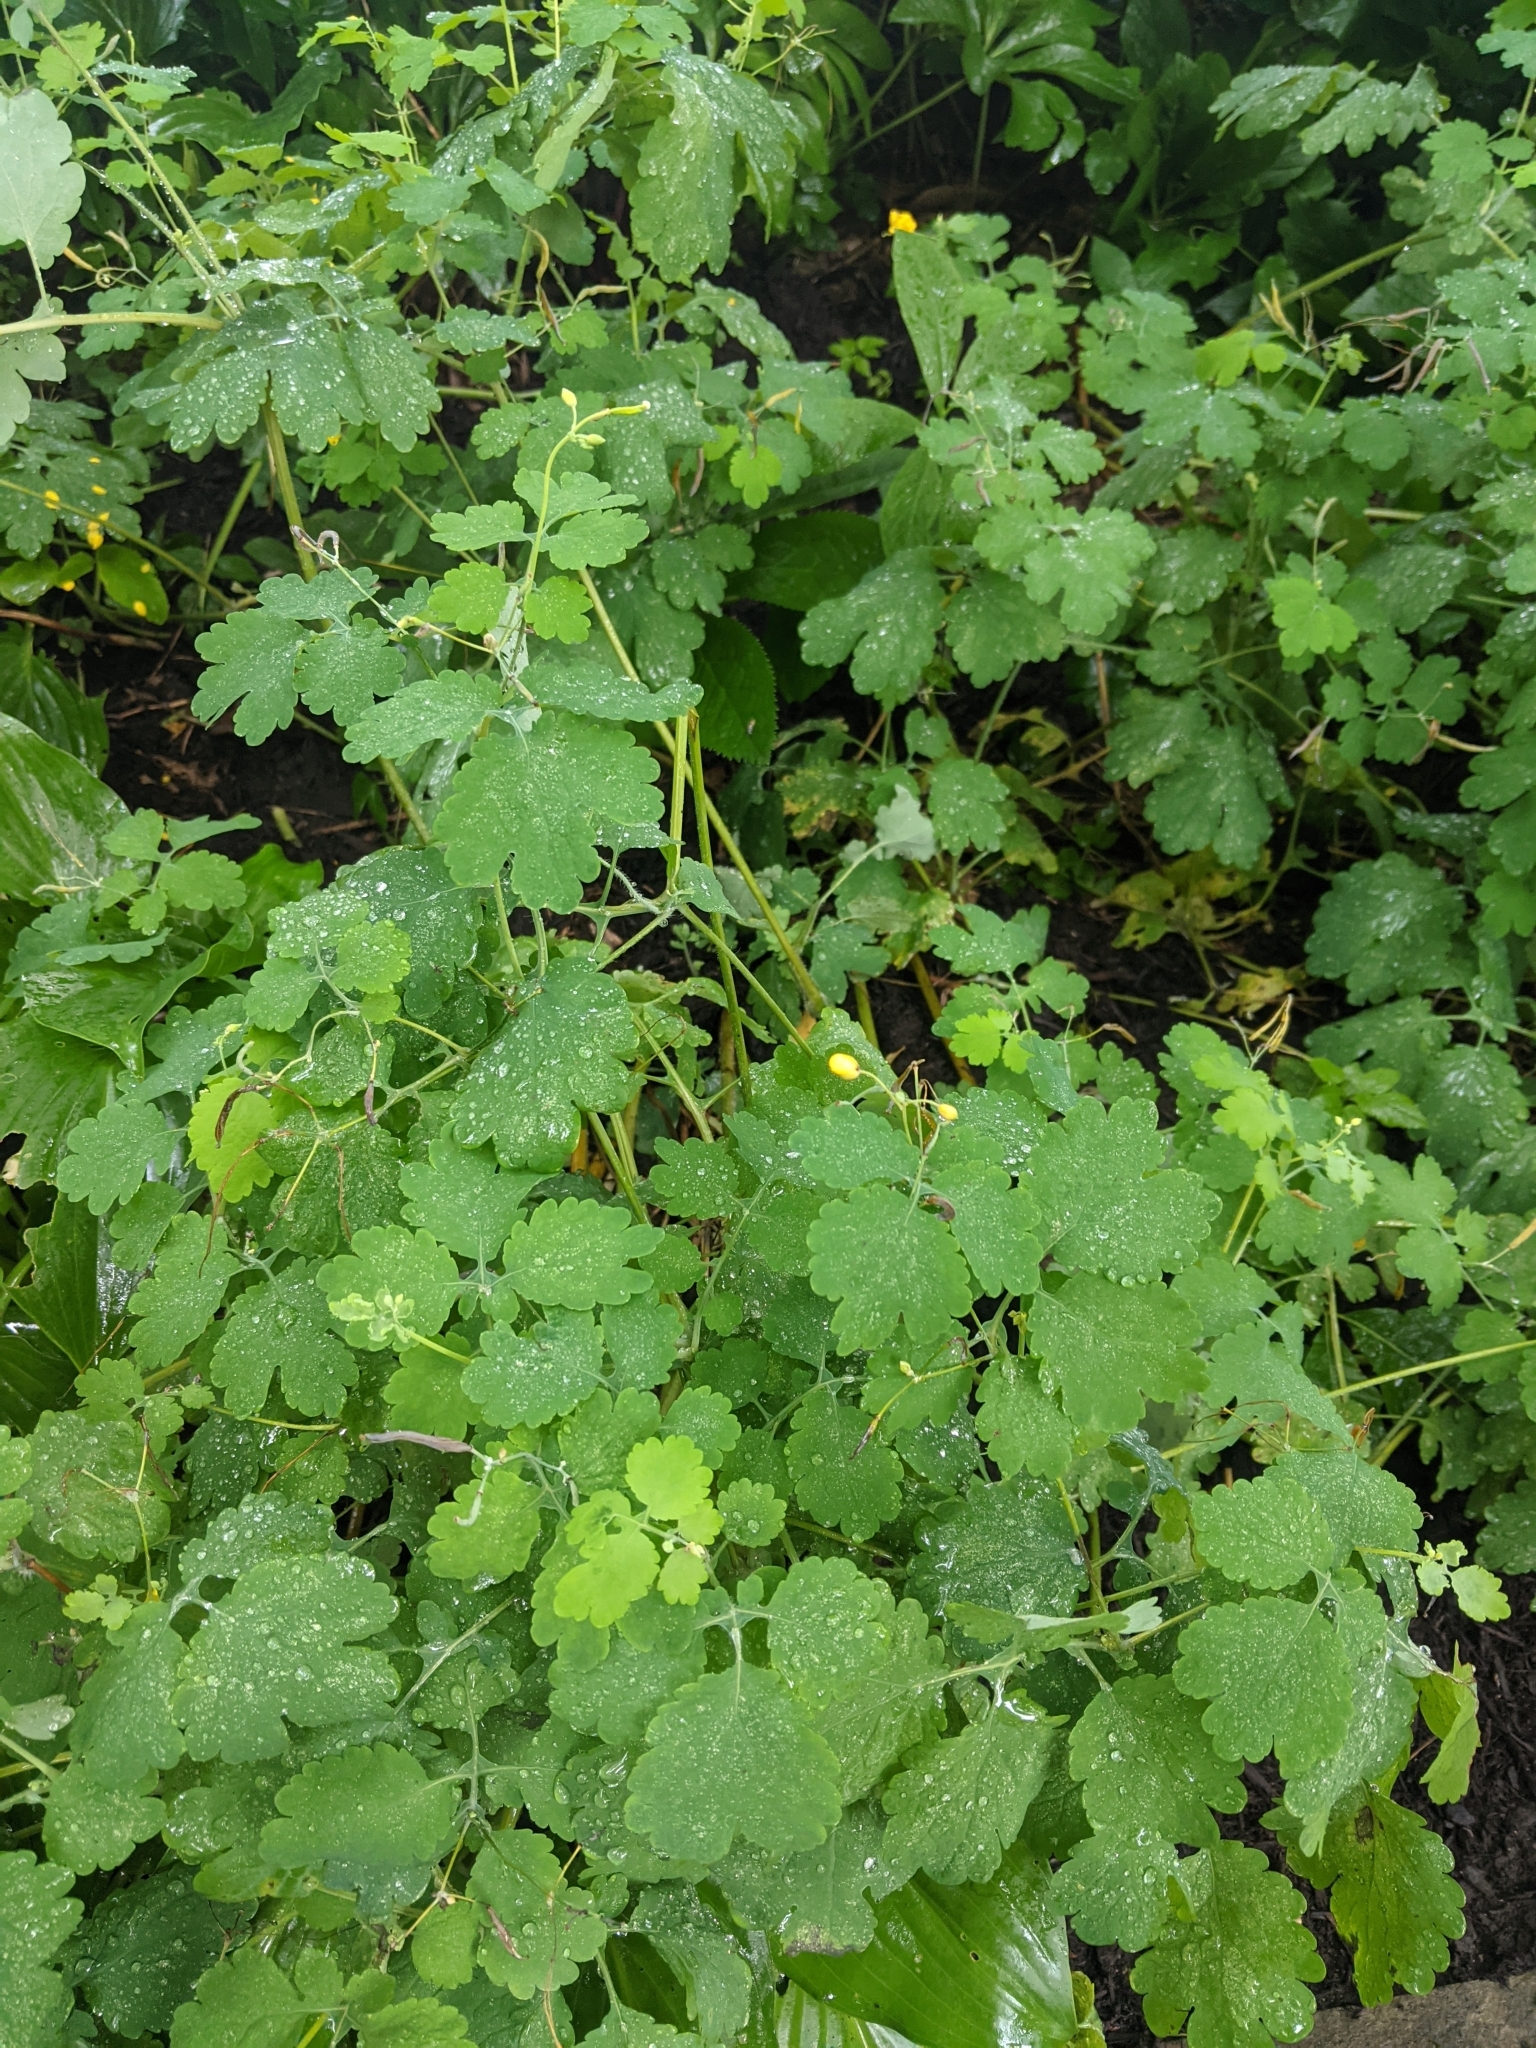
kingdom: Plantae
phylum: Tracheophyta
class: Magnoliopsida
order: Ranunculales
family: Papaveraceae
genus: Chelidonium
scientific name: Chelidonium majus
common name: Greater celandine
